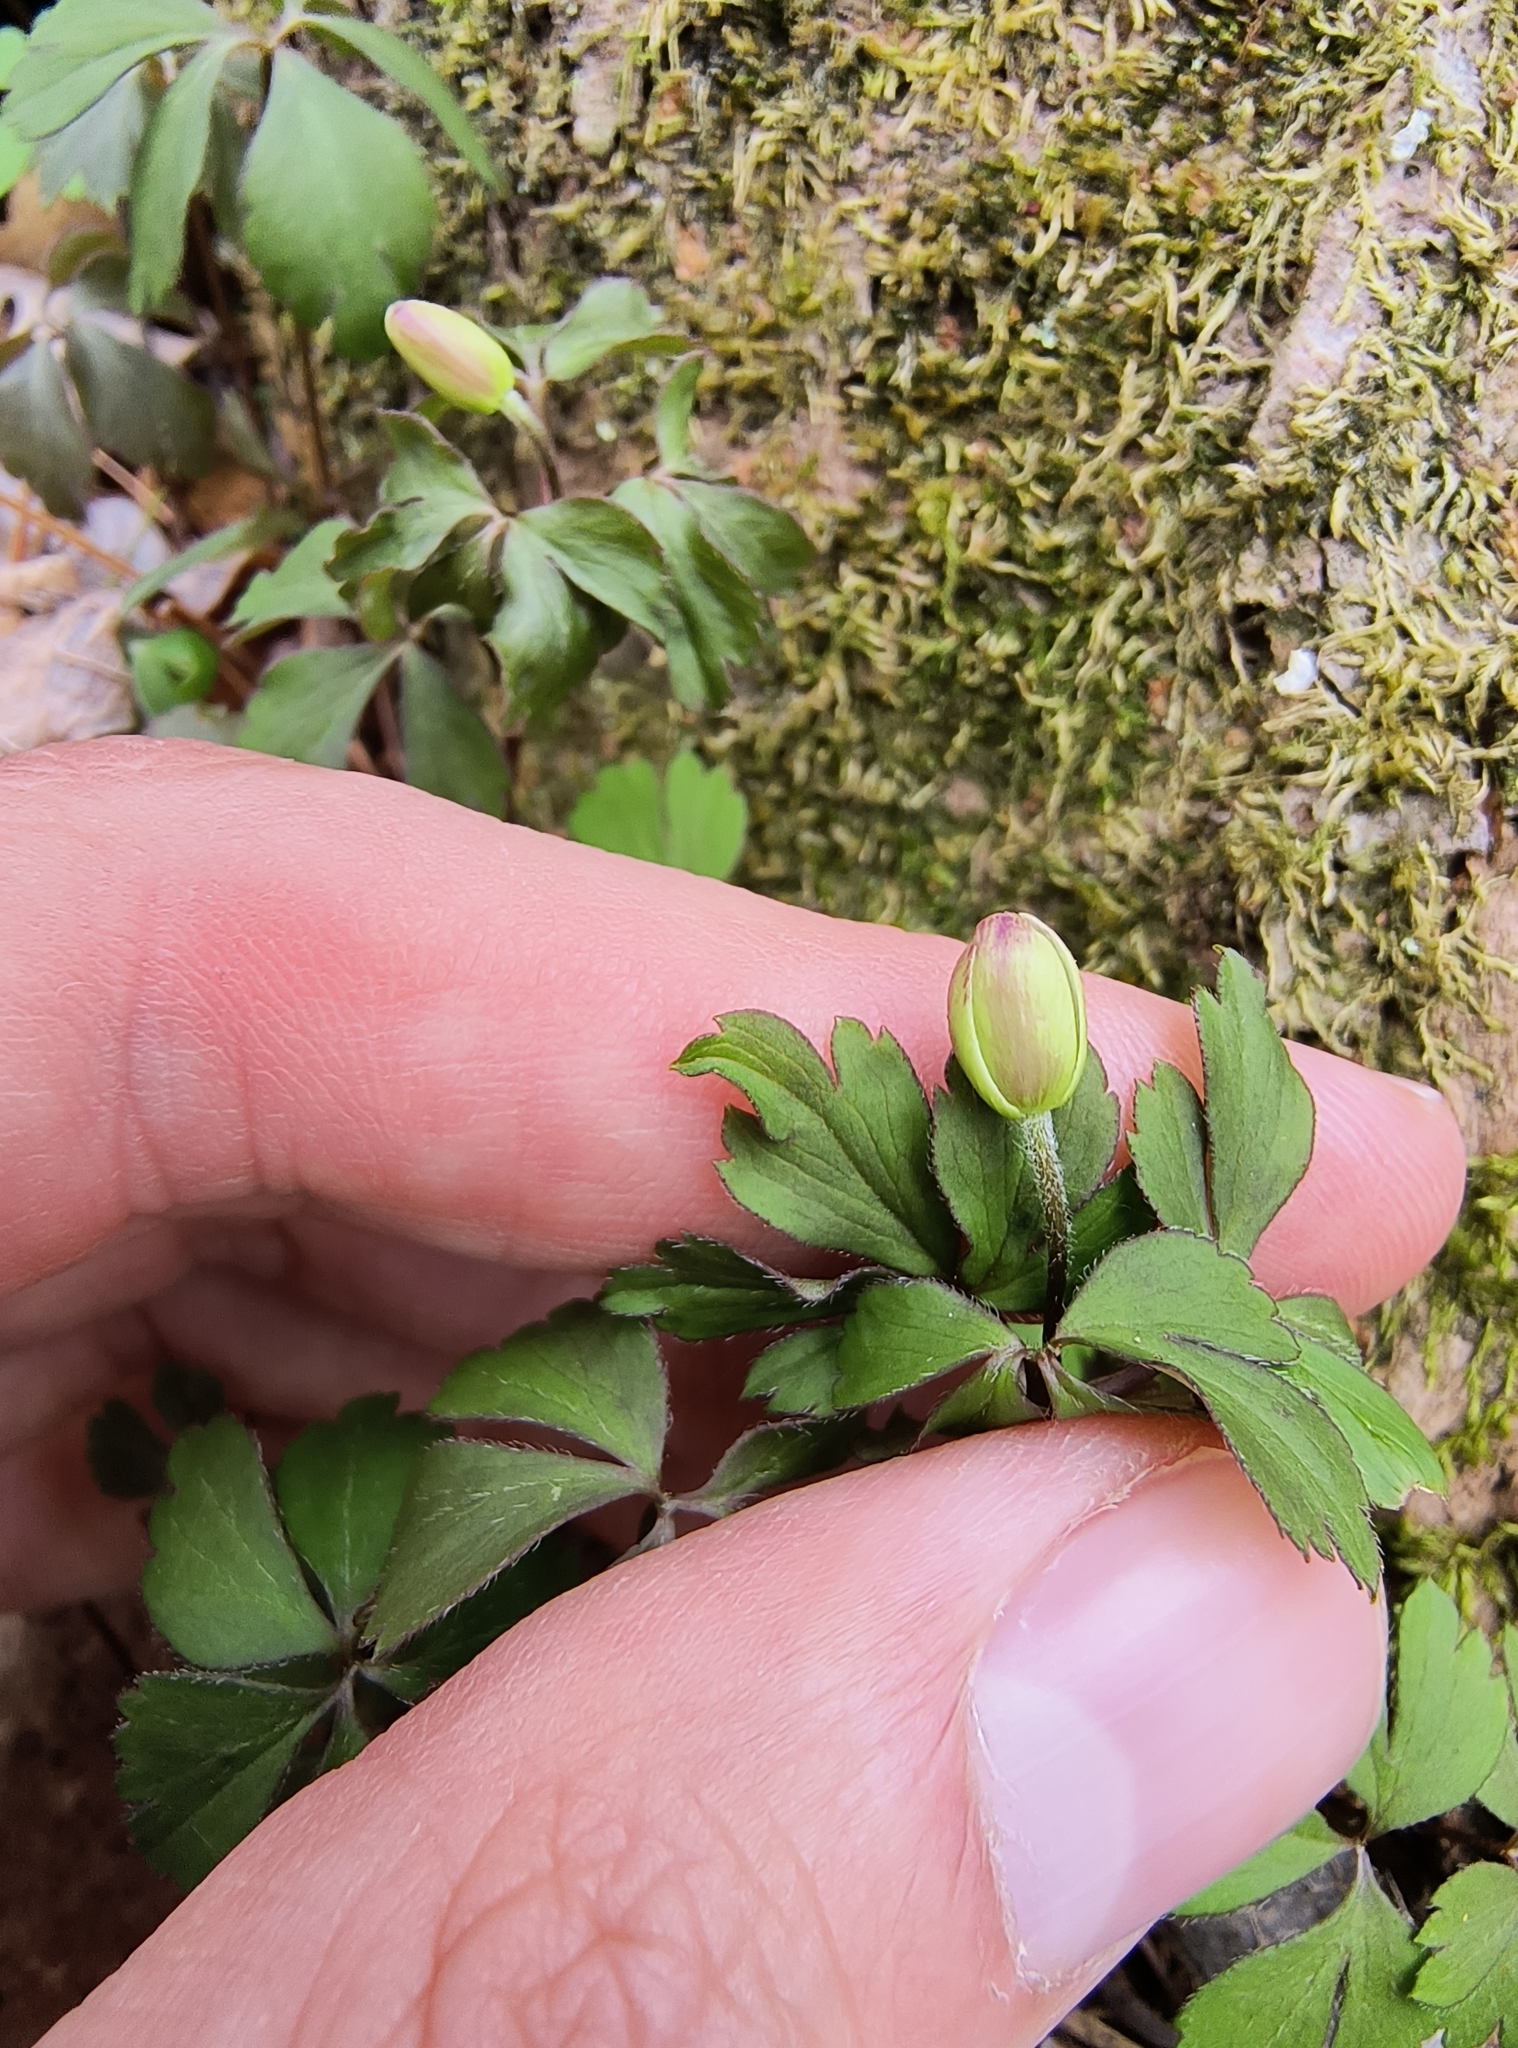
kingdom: Plantae
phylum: Tracheophyta
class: Magnoliopsida
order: Ranunculales
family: Ranunculaceae
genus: Anemone
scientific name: Anemone quinquefolia
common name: Wood anemone
